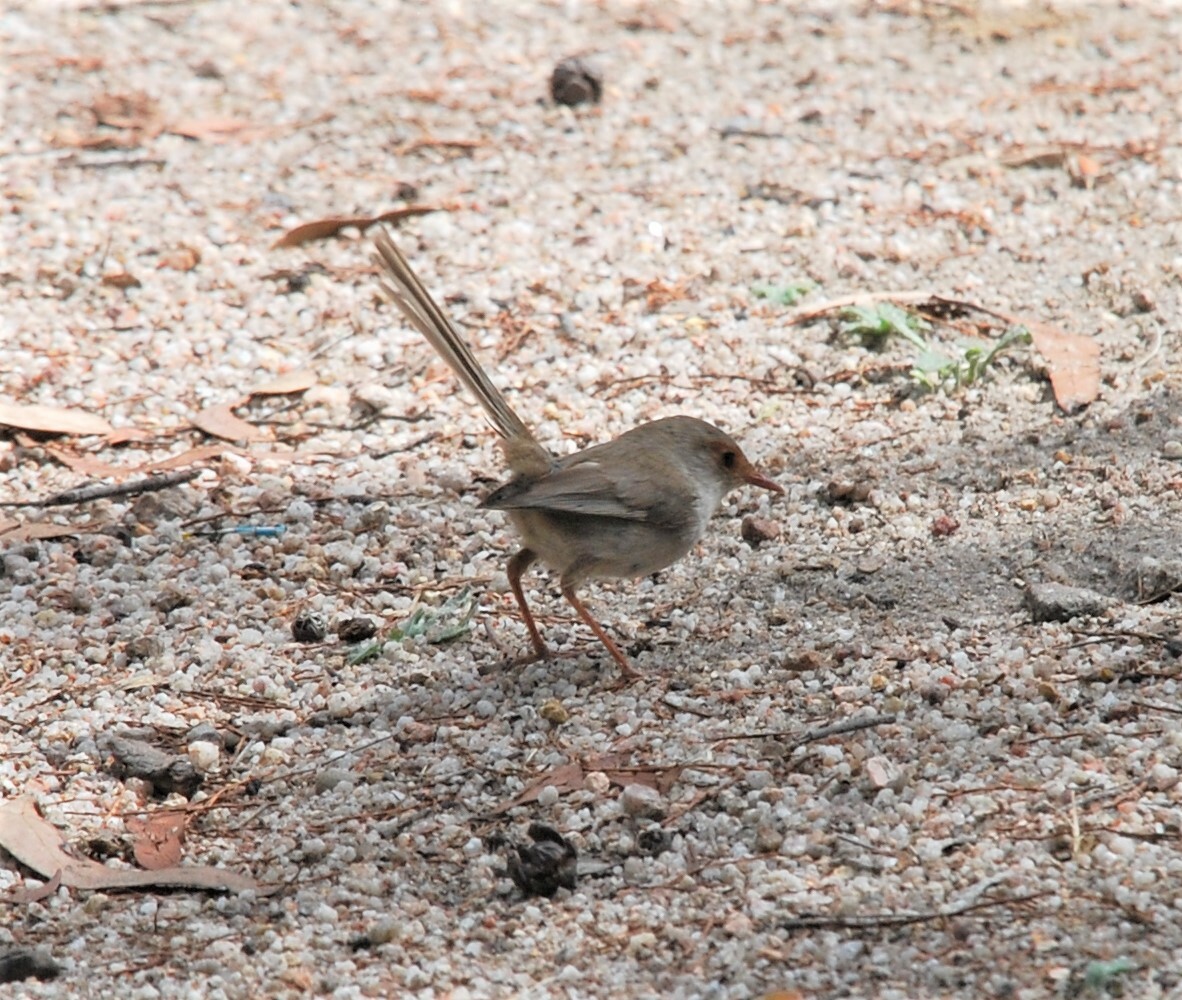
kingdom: Animalia
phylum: Chordata
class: Aves
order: Passeriformes
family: Maluridae
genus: Malurus
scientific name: Malurus cyaneus
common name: Superb fairywren
